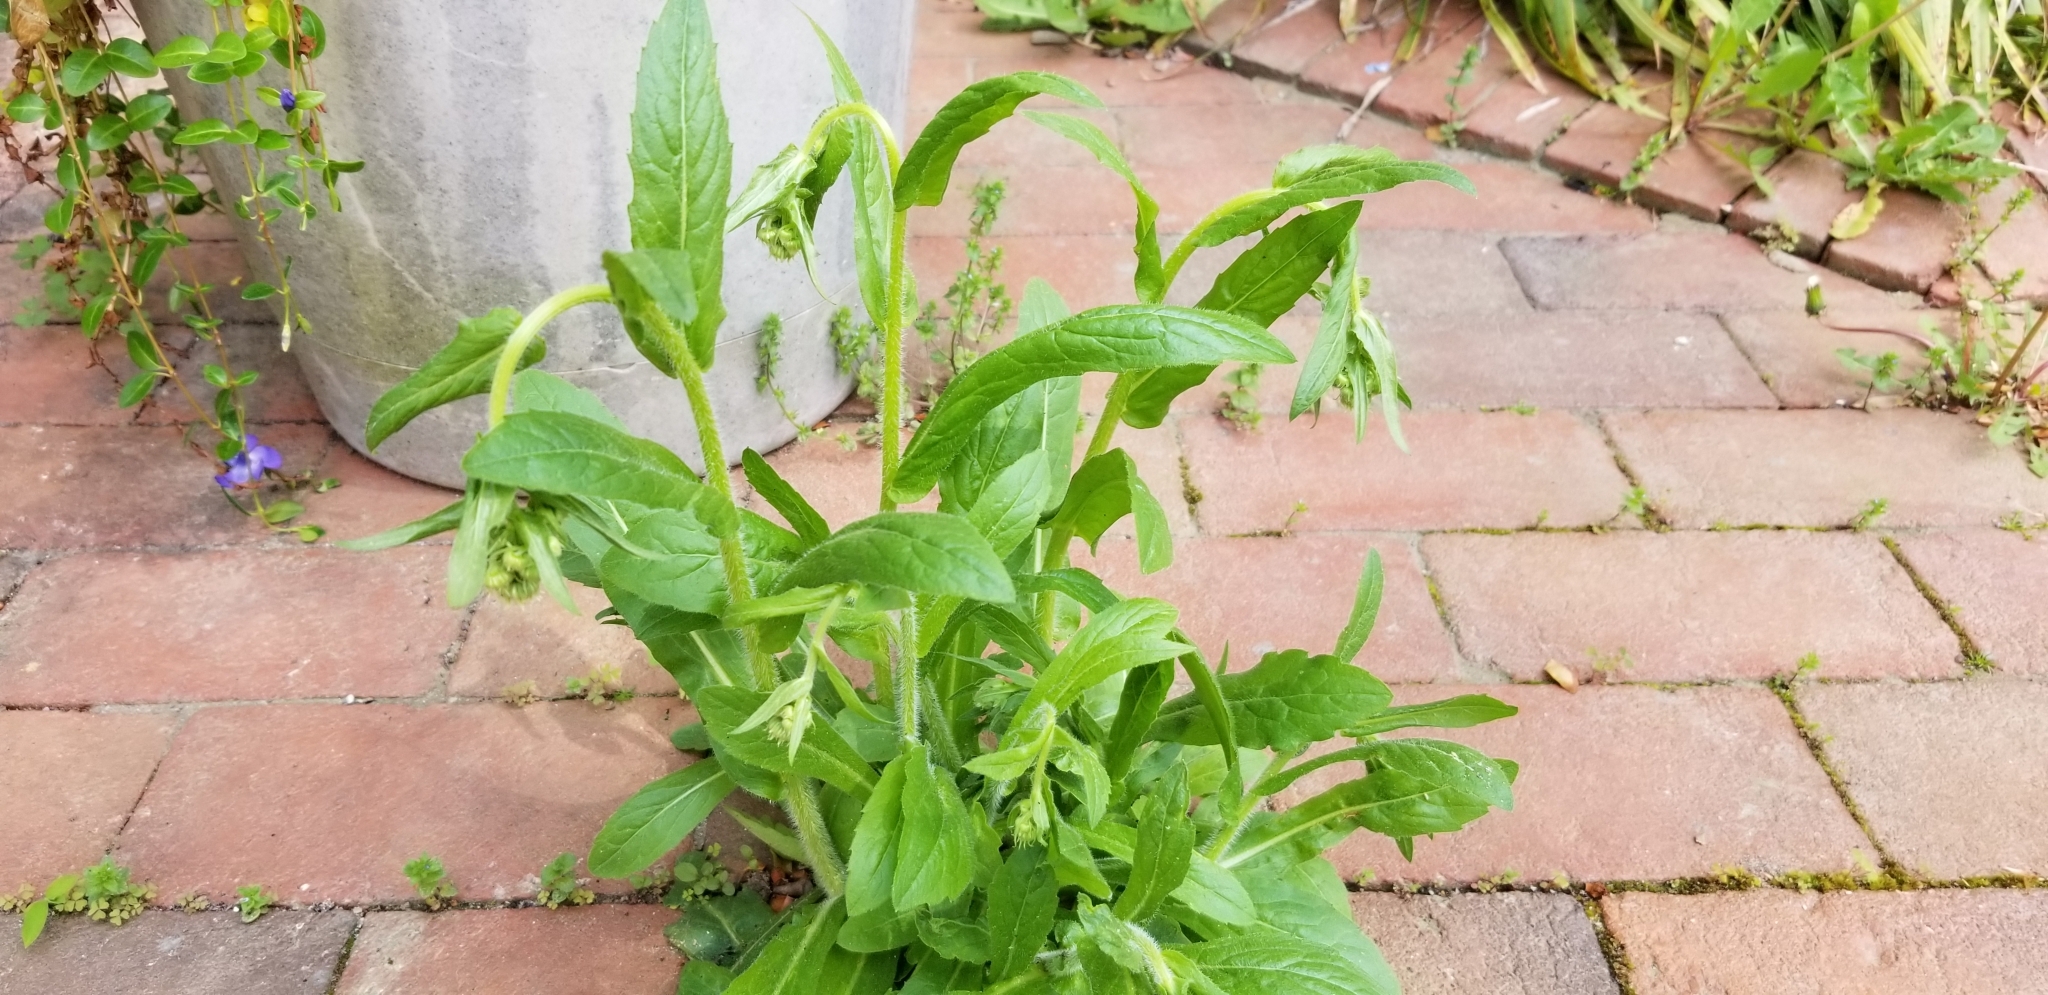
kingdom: Plantae
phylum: Tracheophyta
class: Magnoliopsida
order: Asterales
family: Asteraceae
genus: Erigeron
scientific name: Erigeron philadelphicus
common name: Robin's-plantain
